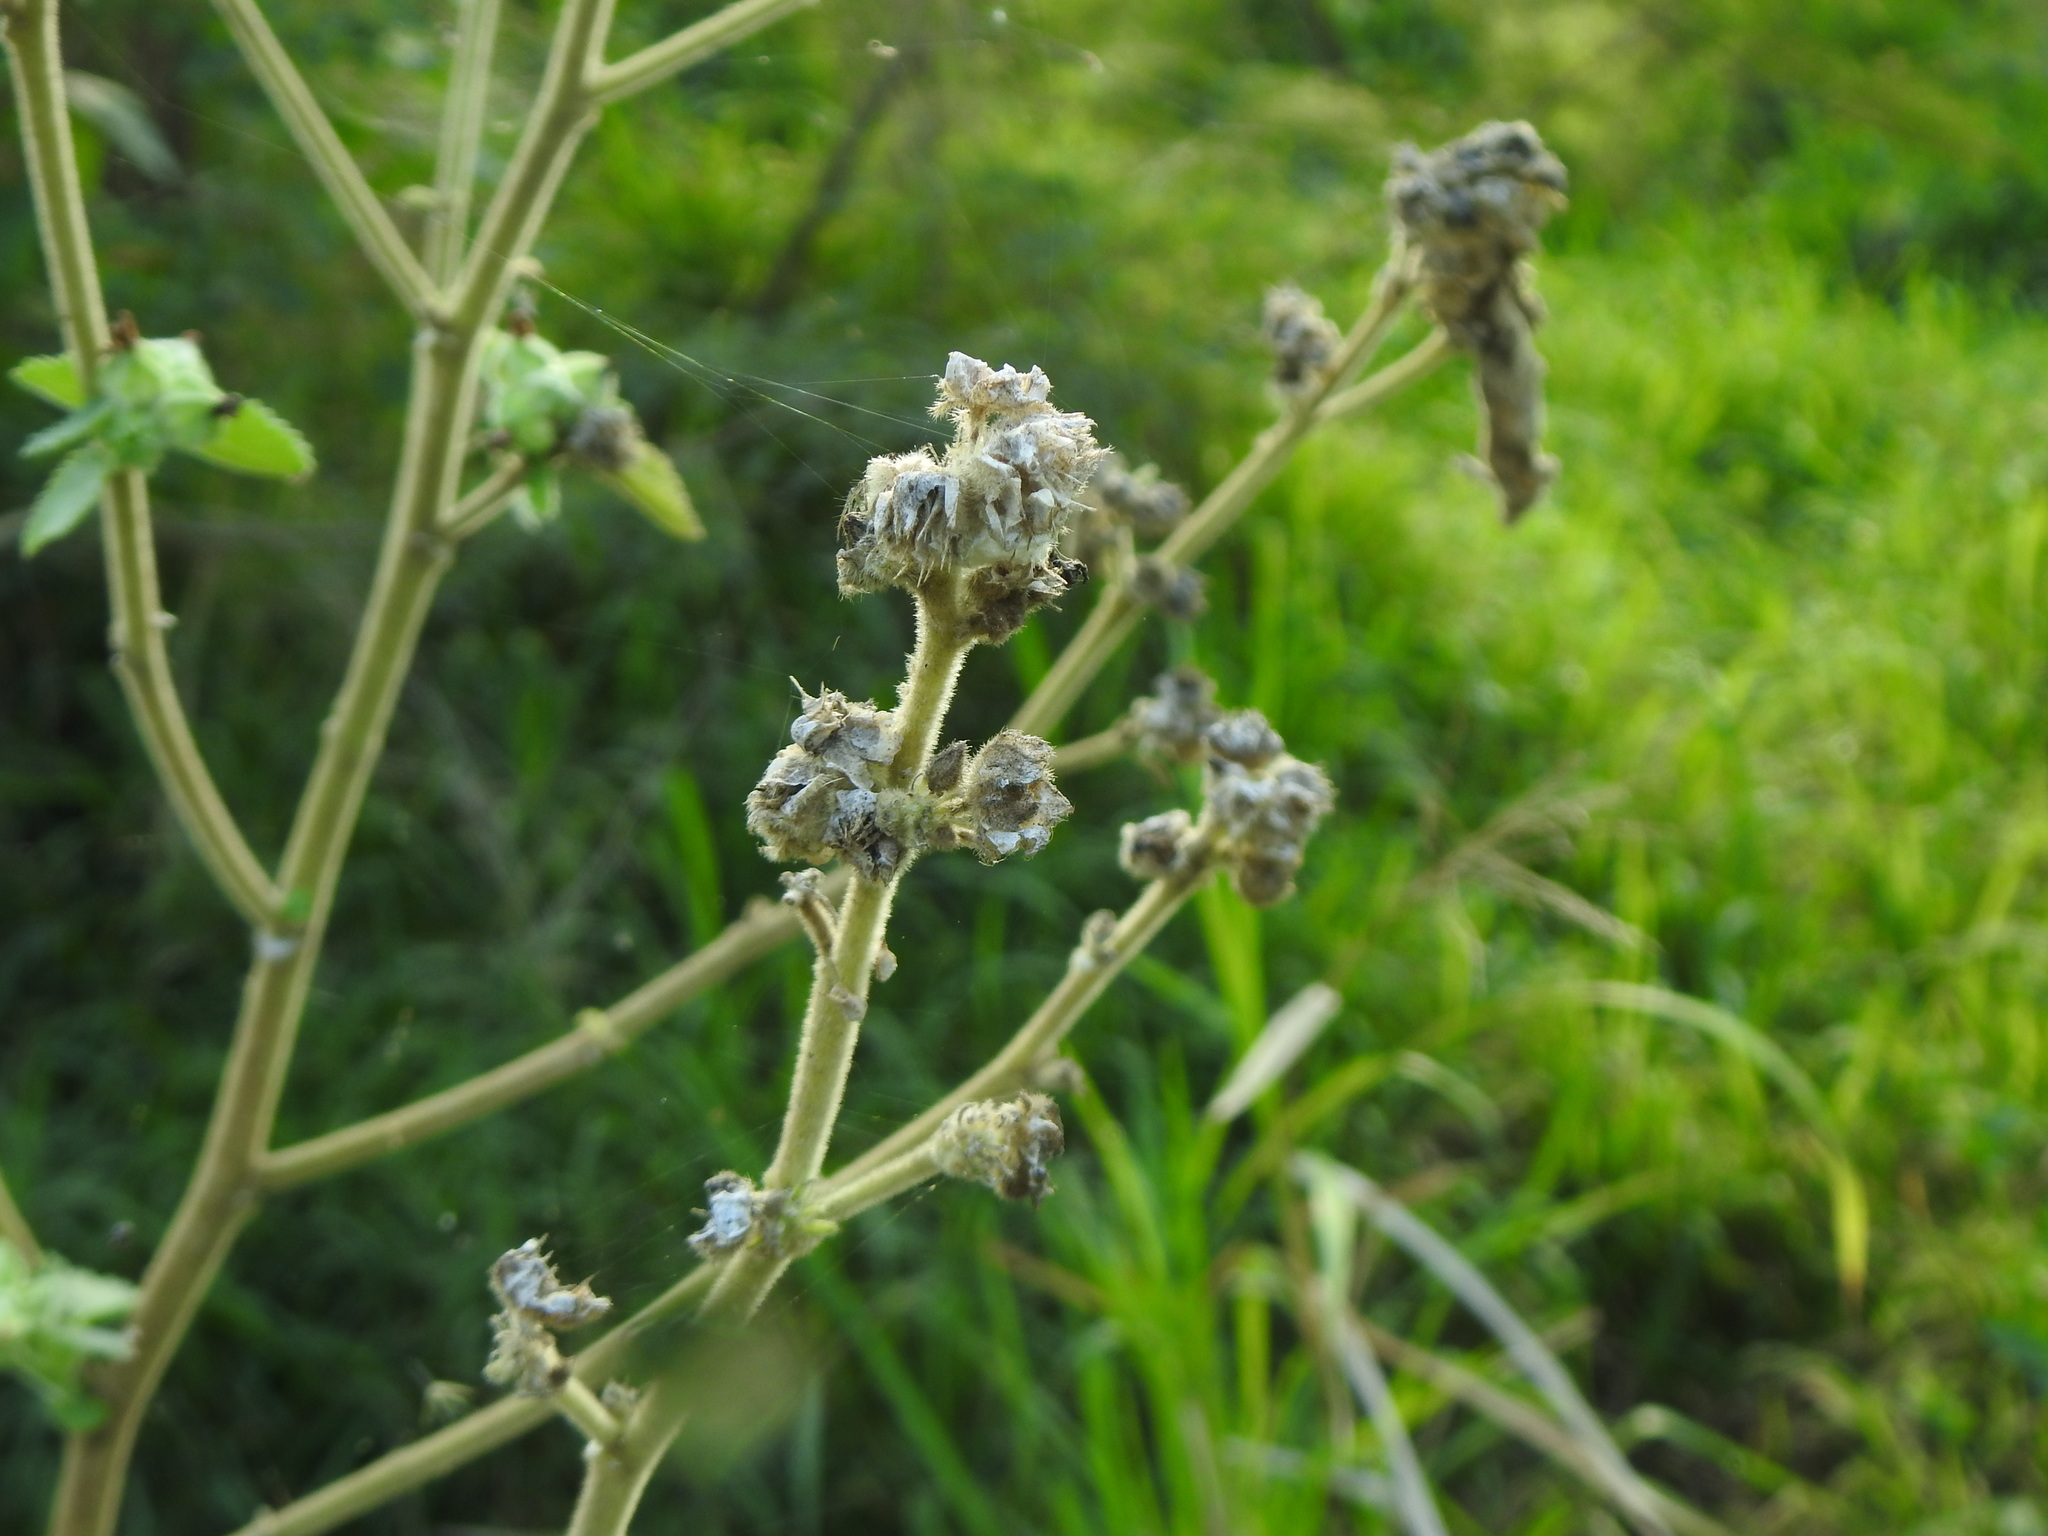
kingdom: Plantae
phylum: Tracheophyta
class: Magnoliopsida
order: Malvales
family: Malvaceae
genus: Sida
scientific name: Sida cordifolia
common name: Ilima
